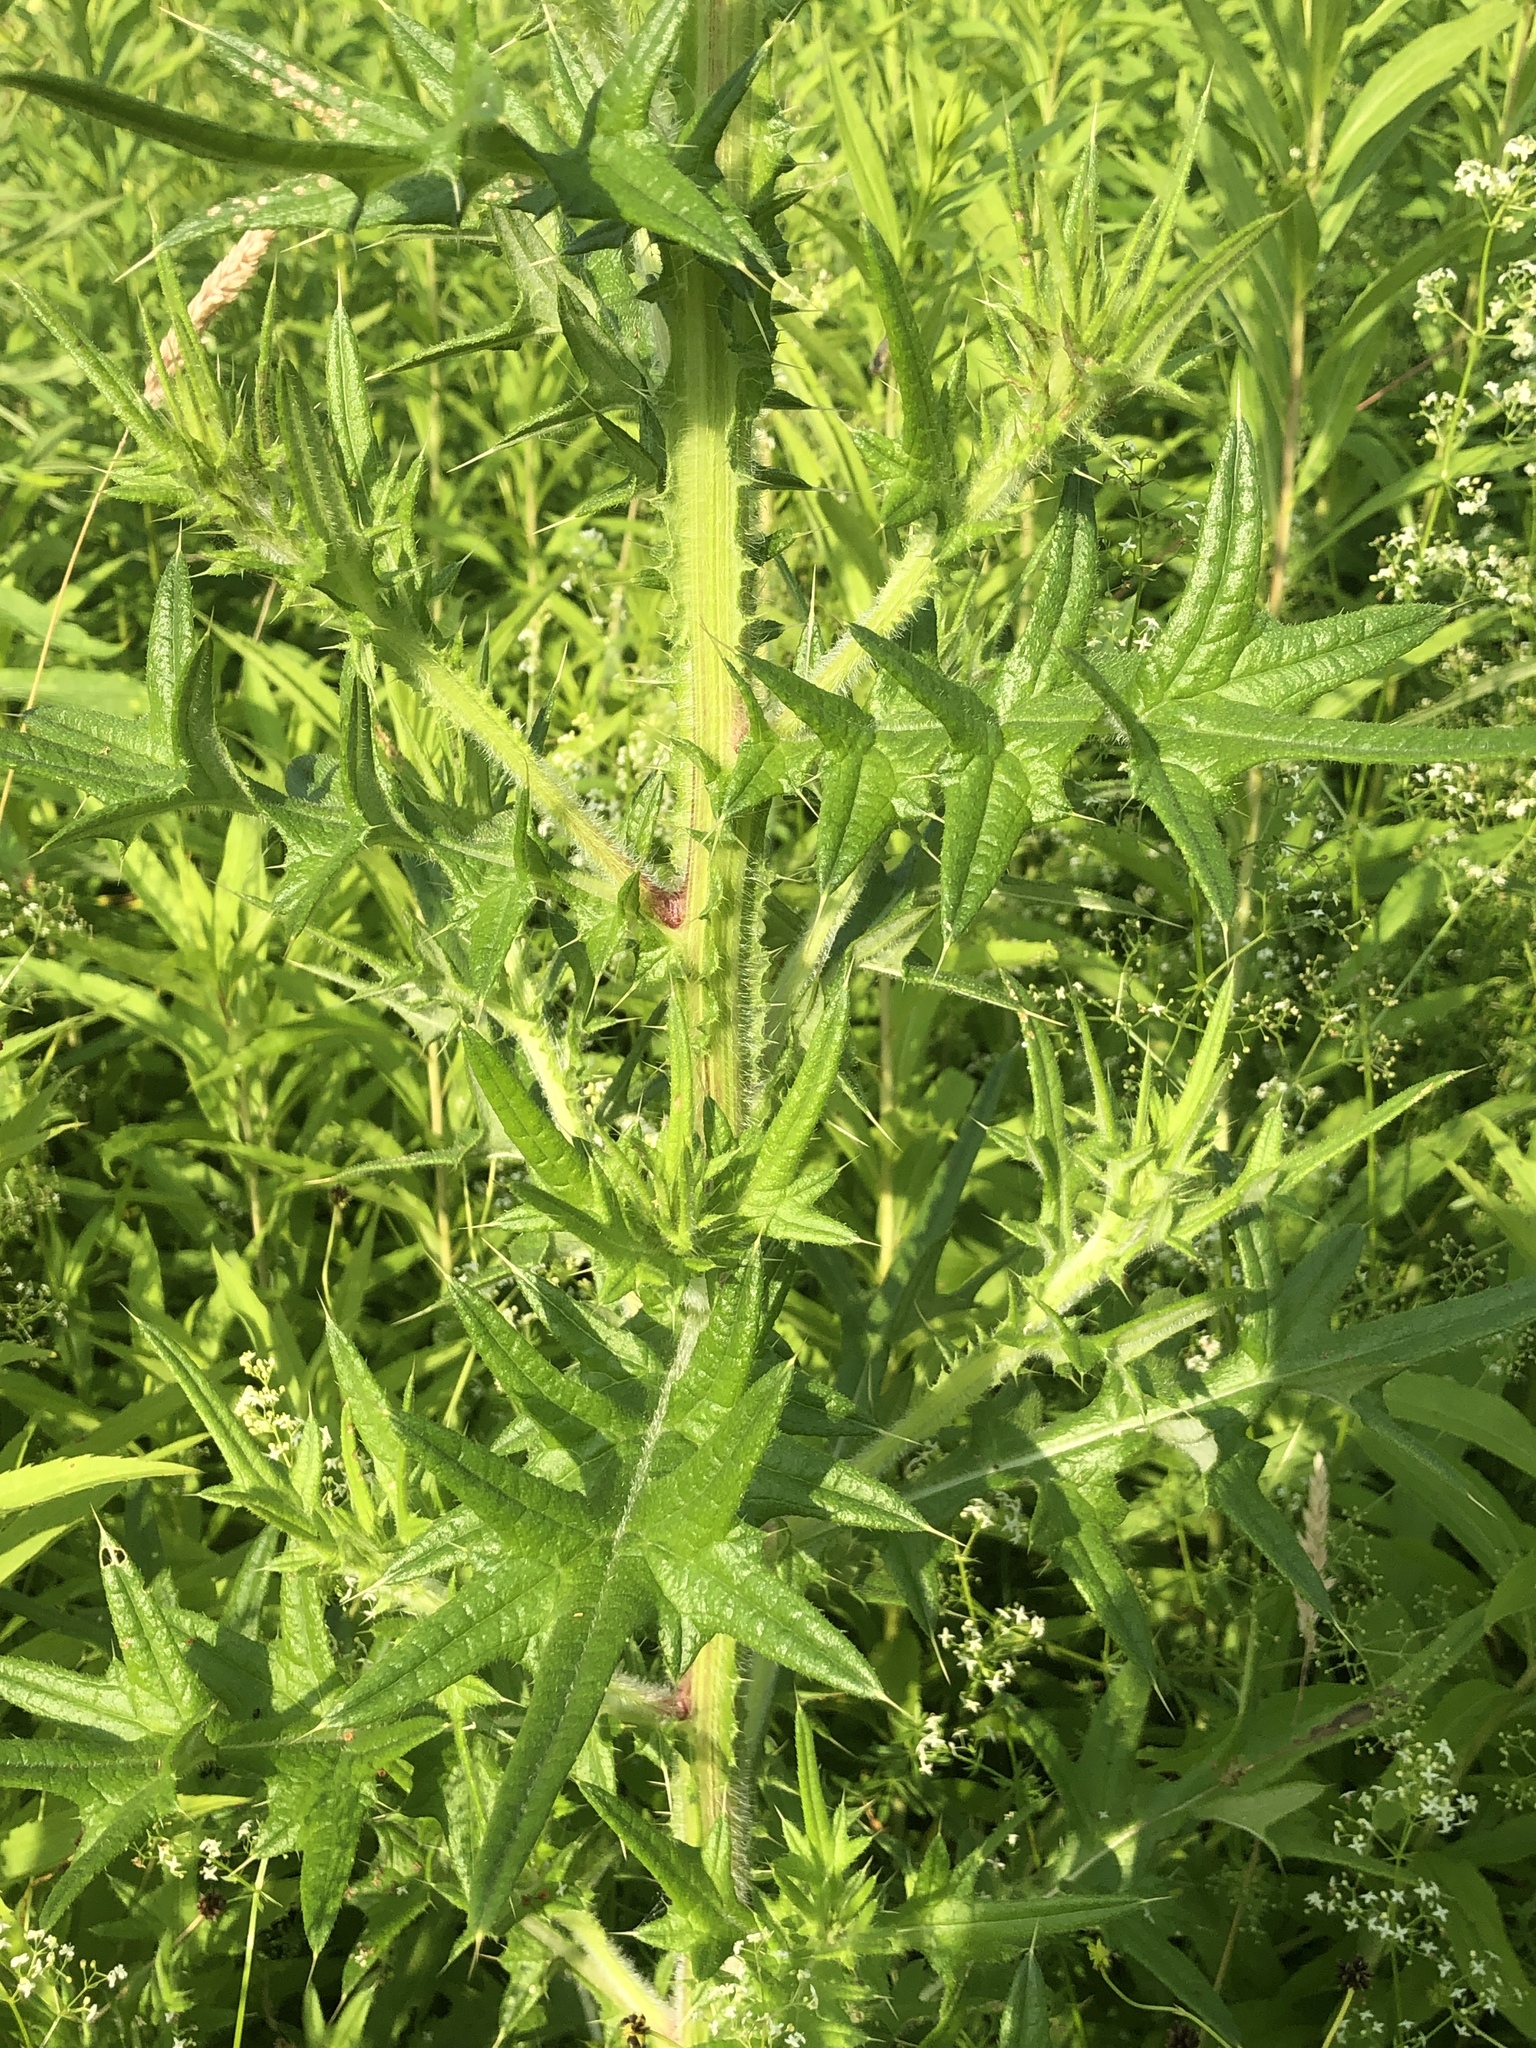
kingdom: Plantae
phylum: Tracheophyta
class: Magnoliopsida
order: Asterales
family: Asteraceae
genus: Cirsium
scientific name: Cirsium vulgare
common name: Bull thistle
